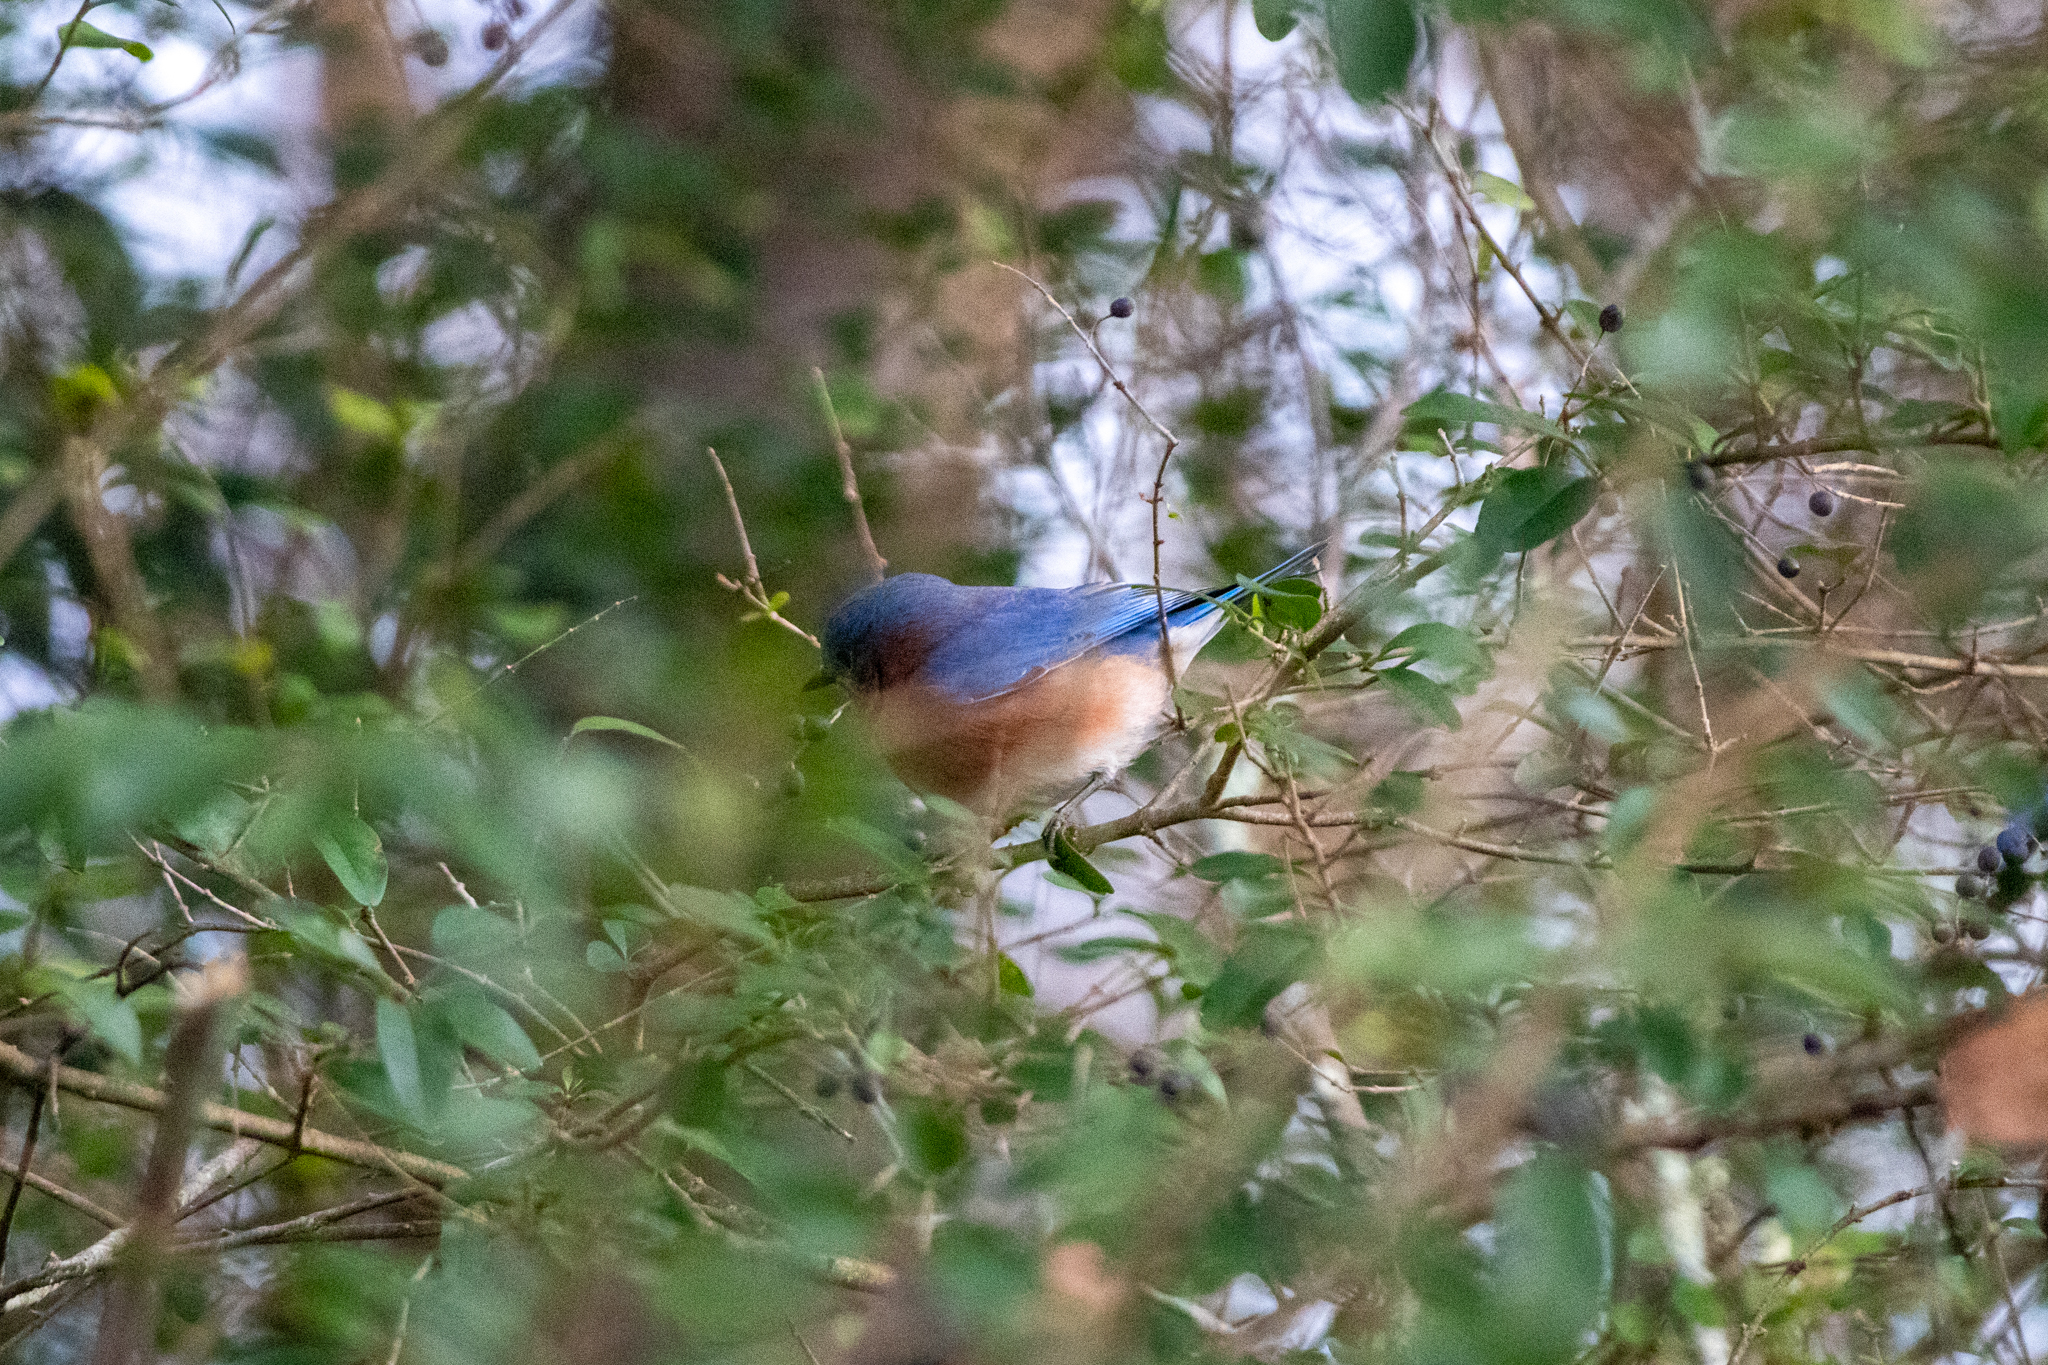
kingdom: Animalia
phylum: Chordata
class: Aves
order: Passeriformes
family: Turdidae
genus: Sialia
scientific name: Sialia sialis
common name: Eastern bluebird
